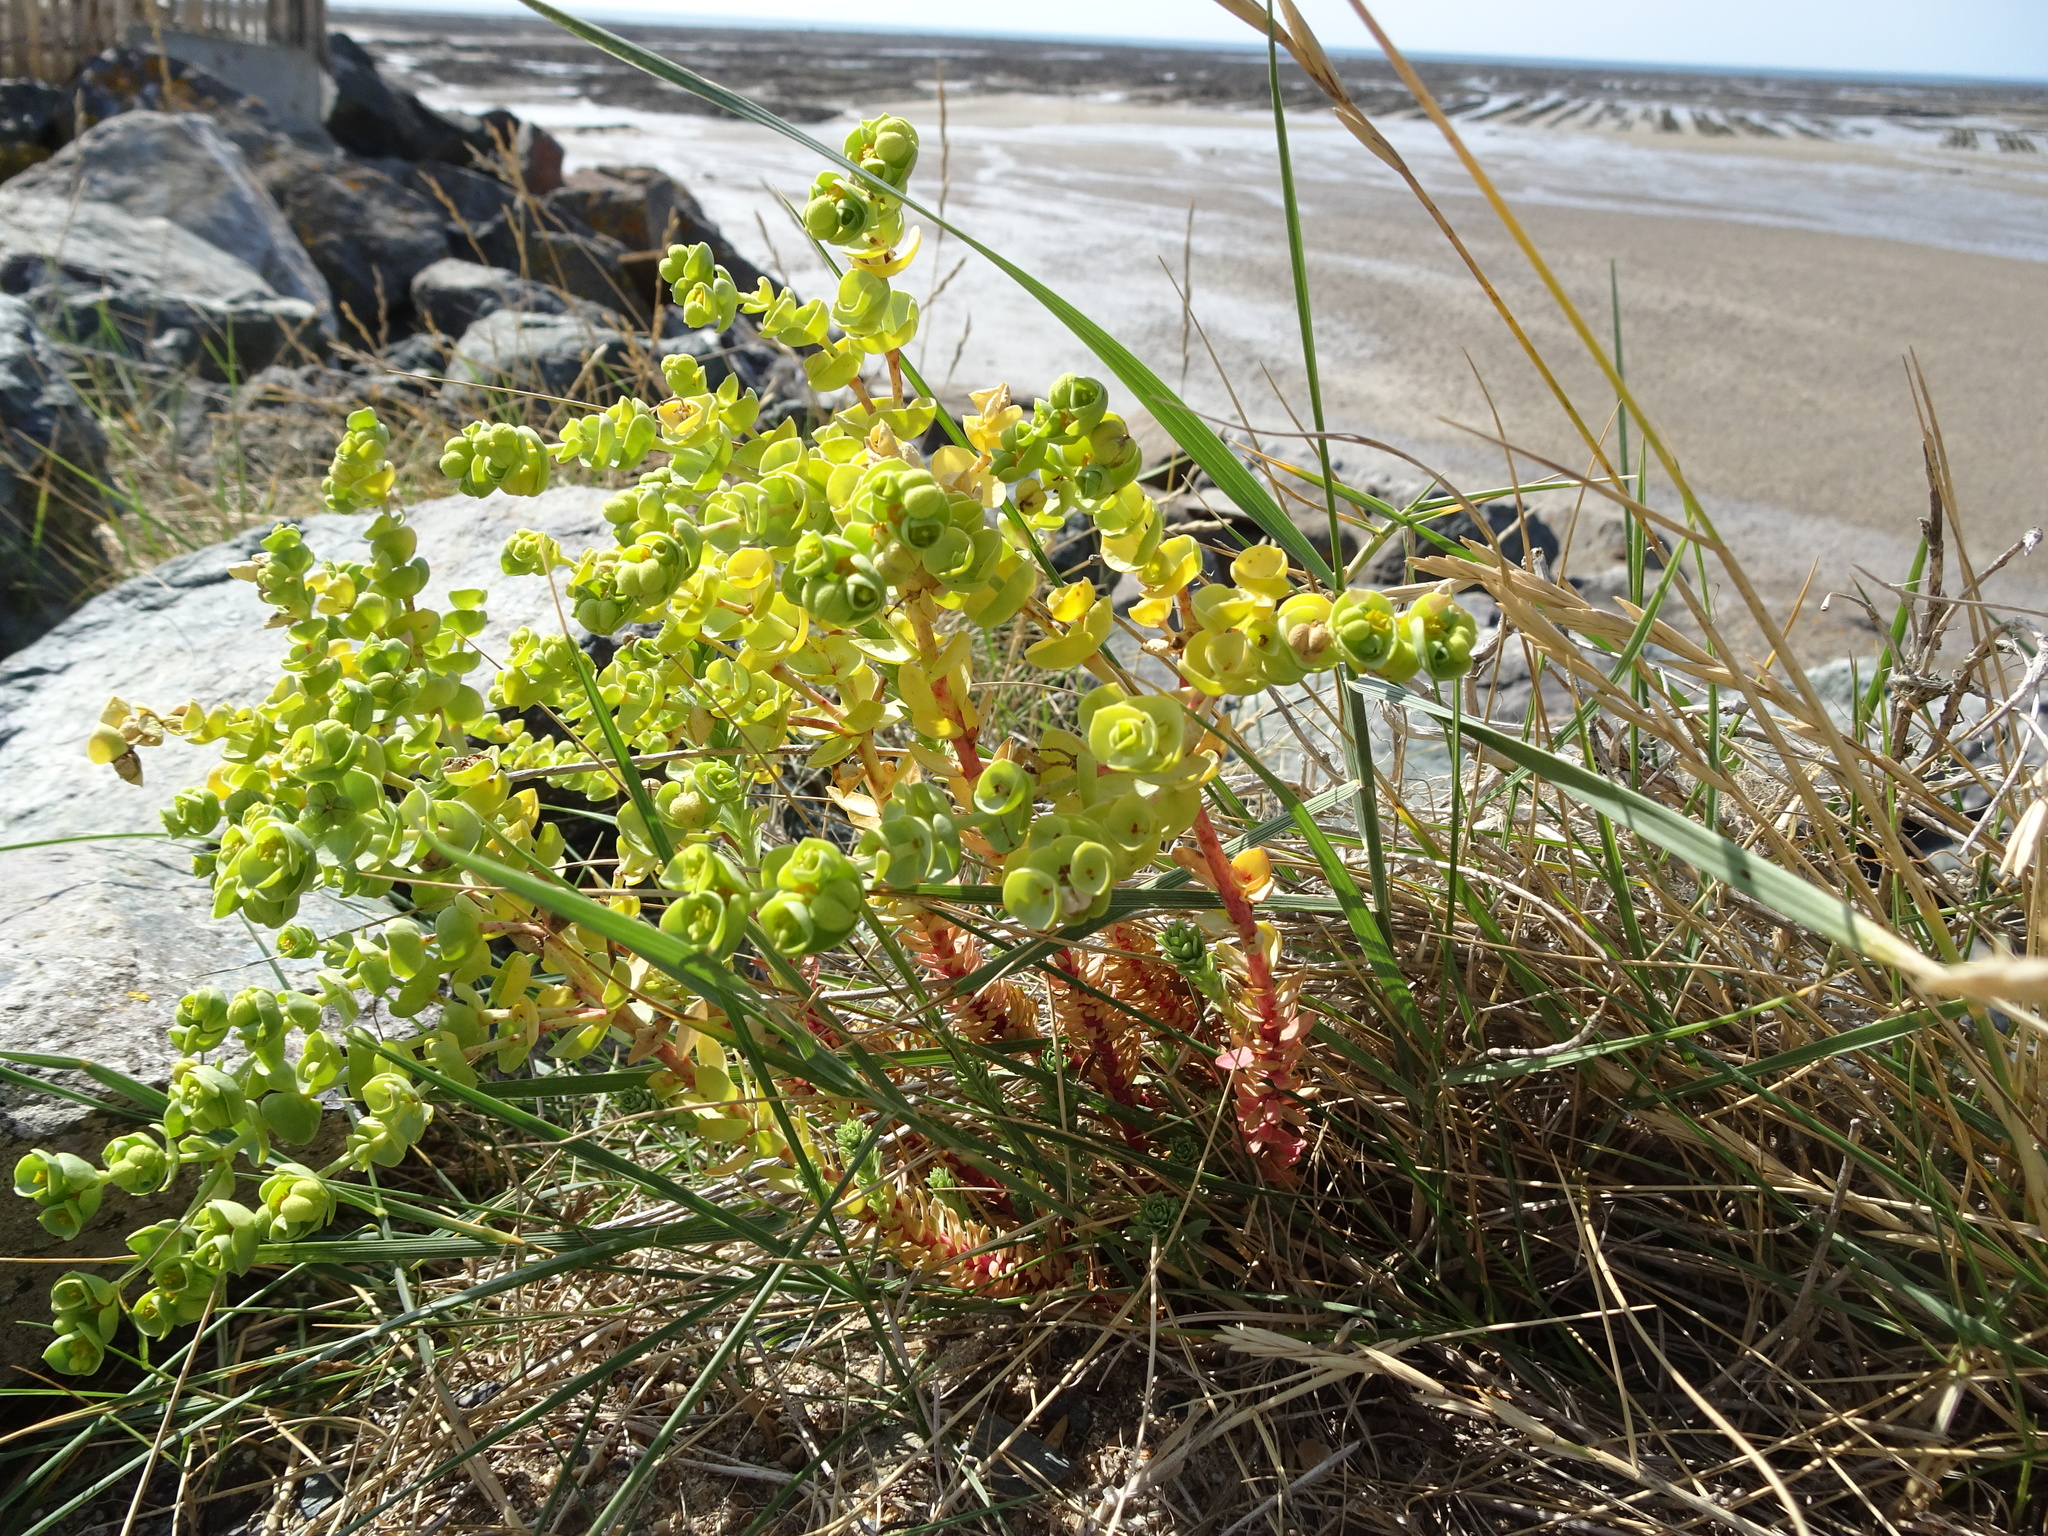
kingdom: Plantae
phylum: Tracheophyta
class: Magnoliopsida
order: Malpighiales
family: Euphorbiaceae
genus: Euphorbia
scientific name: Euphorbia paralias
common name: Sea spurge
